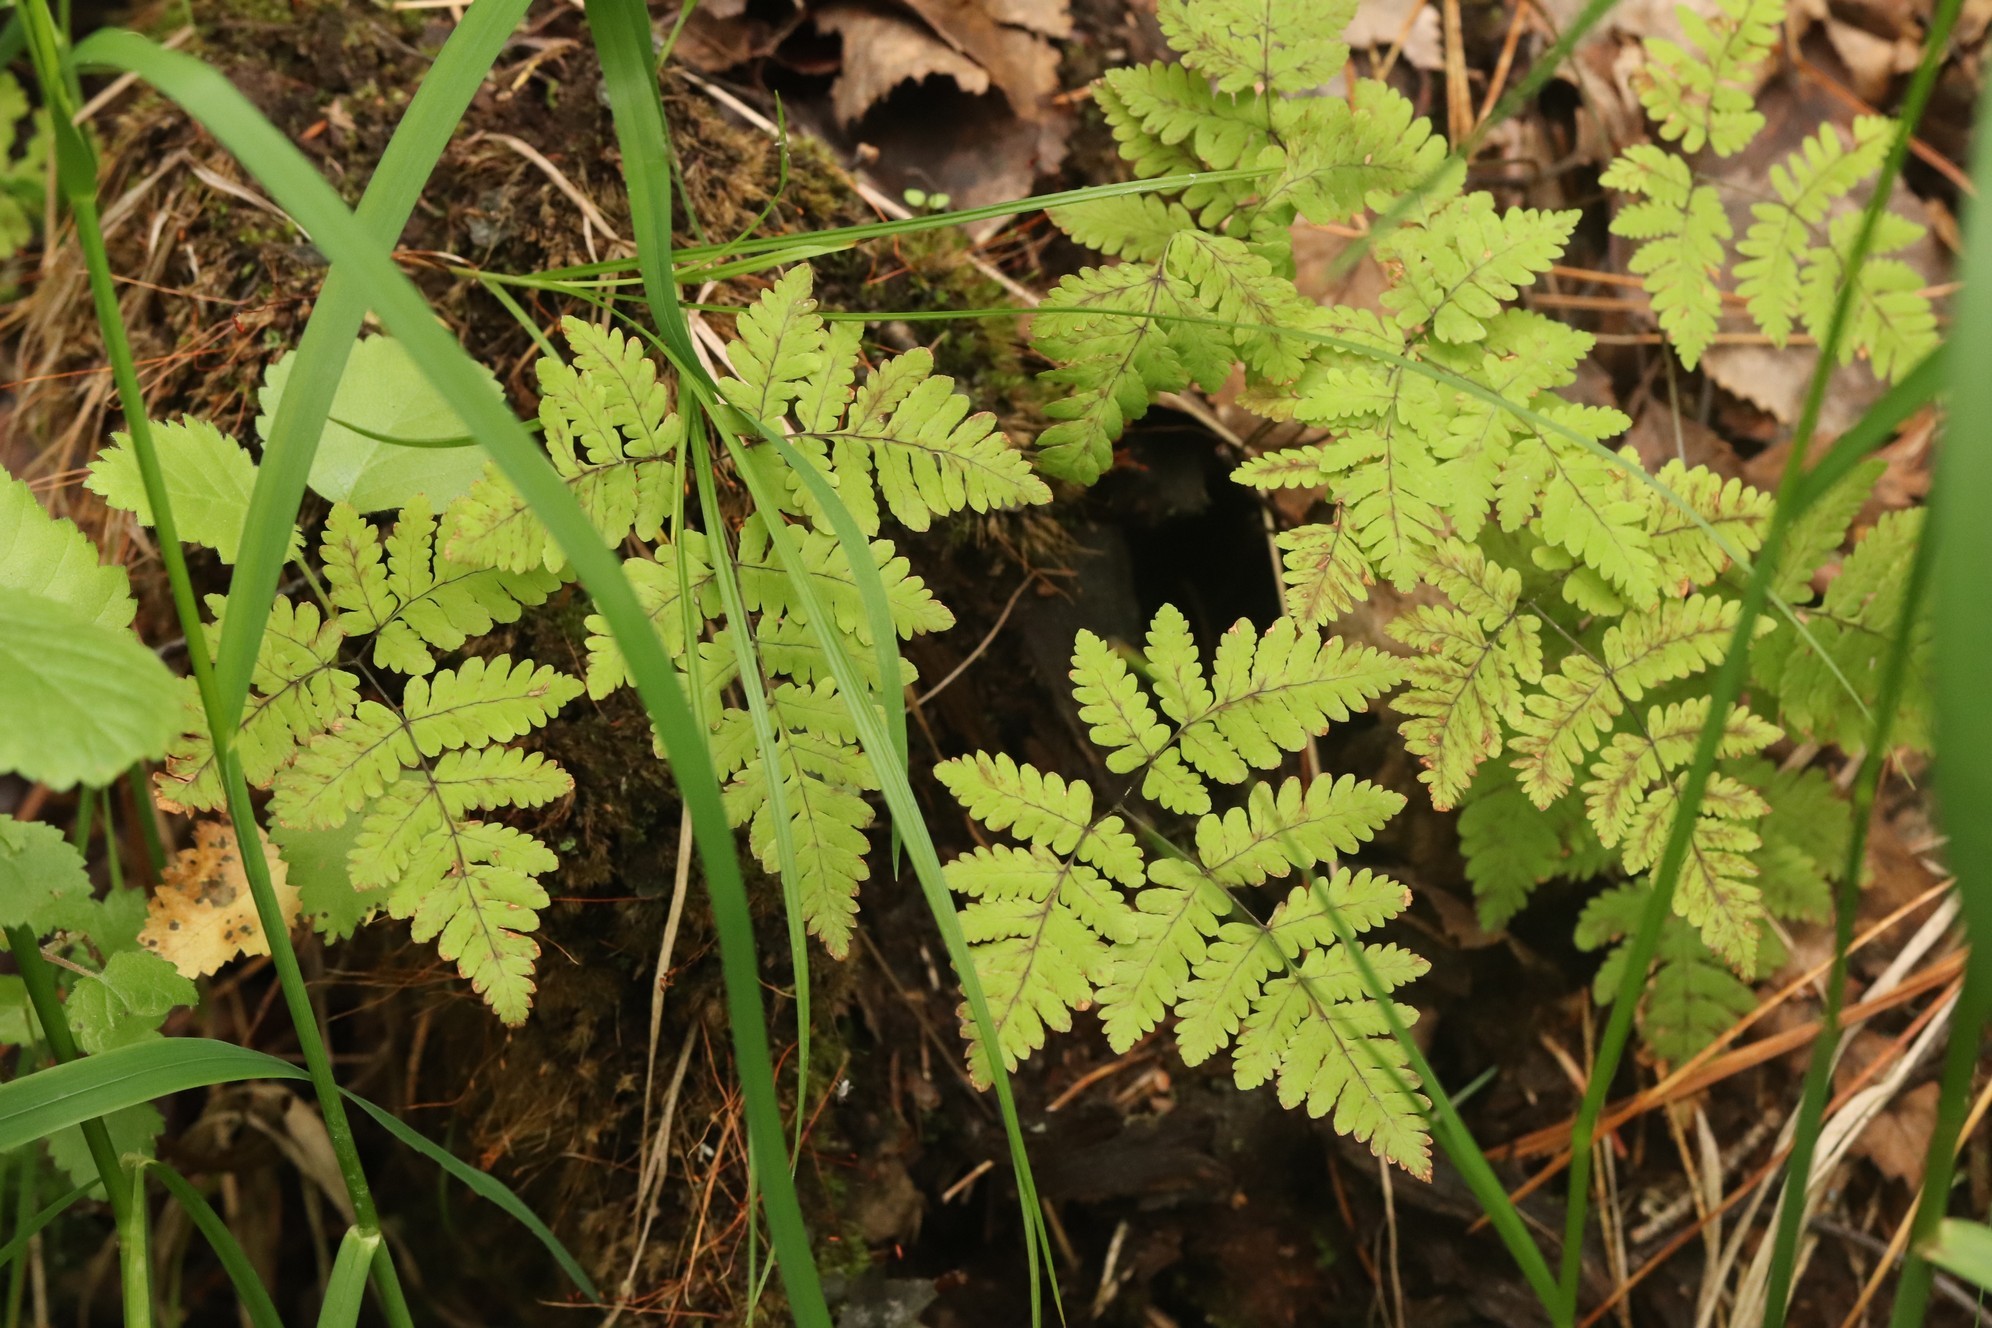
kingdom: Plantae
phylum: Tracheophyta
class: Polypodiopsida
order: Polypodiales
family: Cystopteridaceae
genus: Gymnocarpium
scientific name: Gymnocarpium dryopteris
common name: Oak fern
